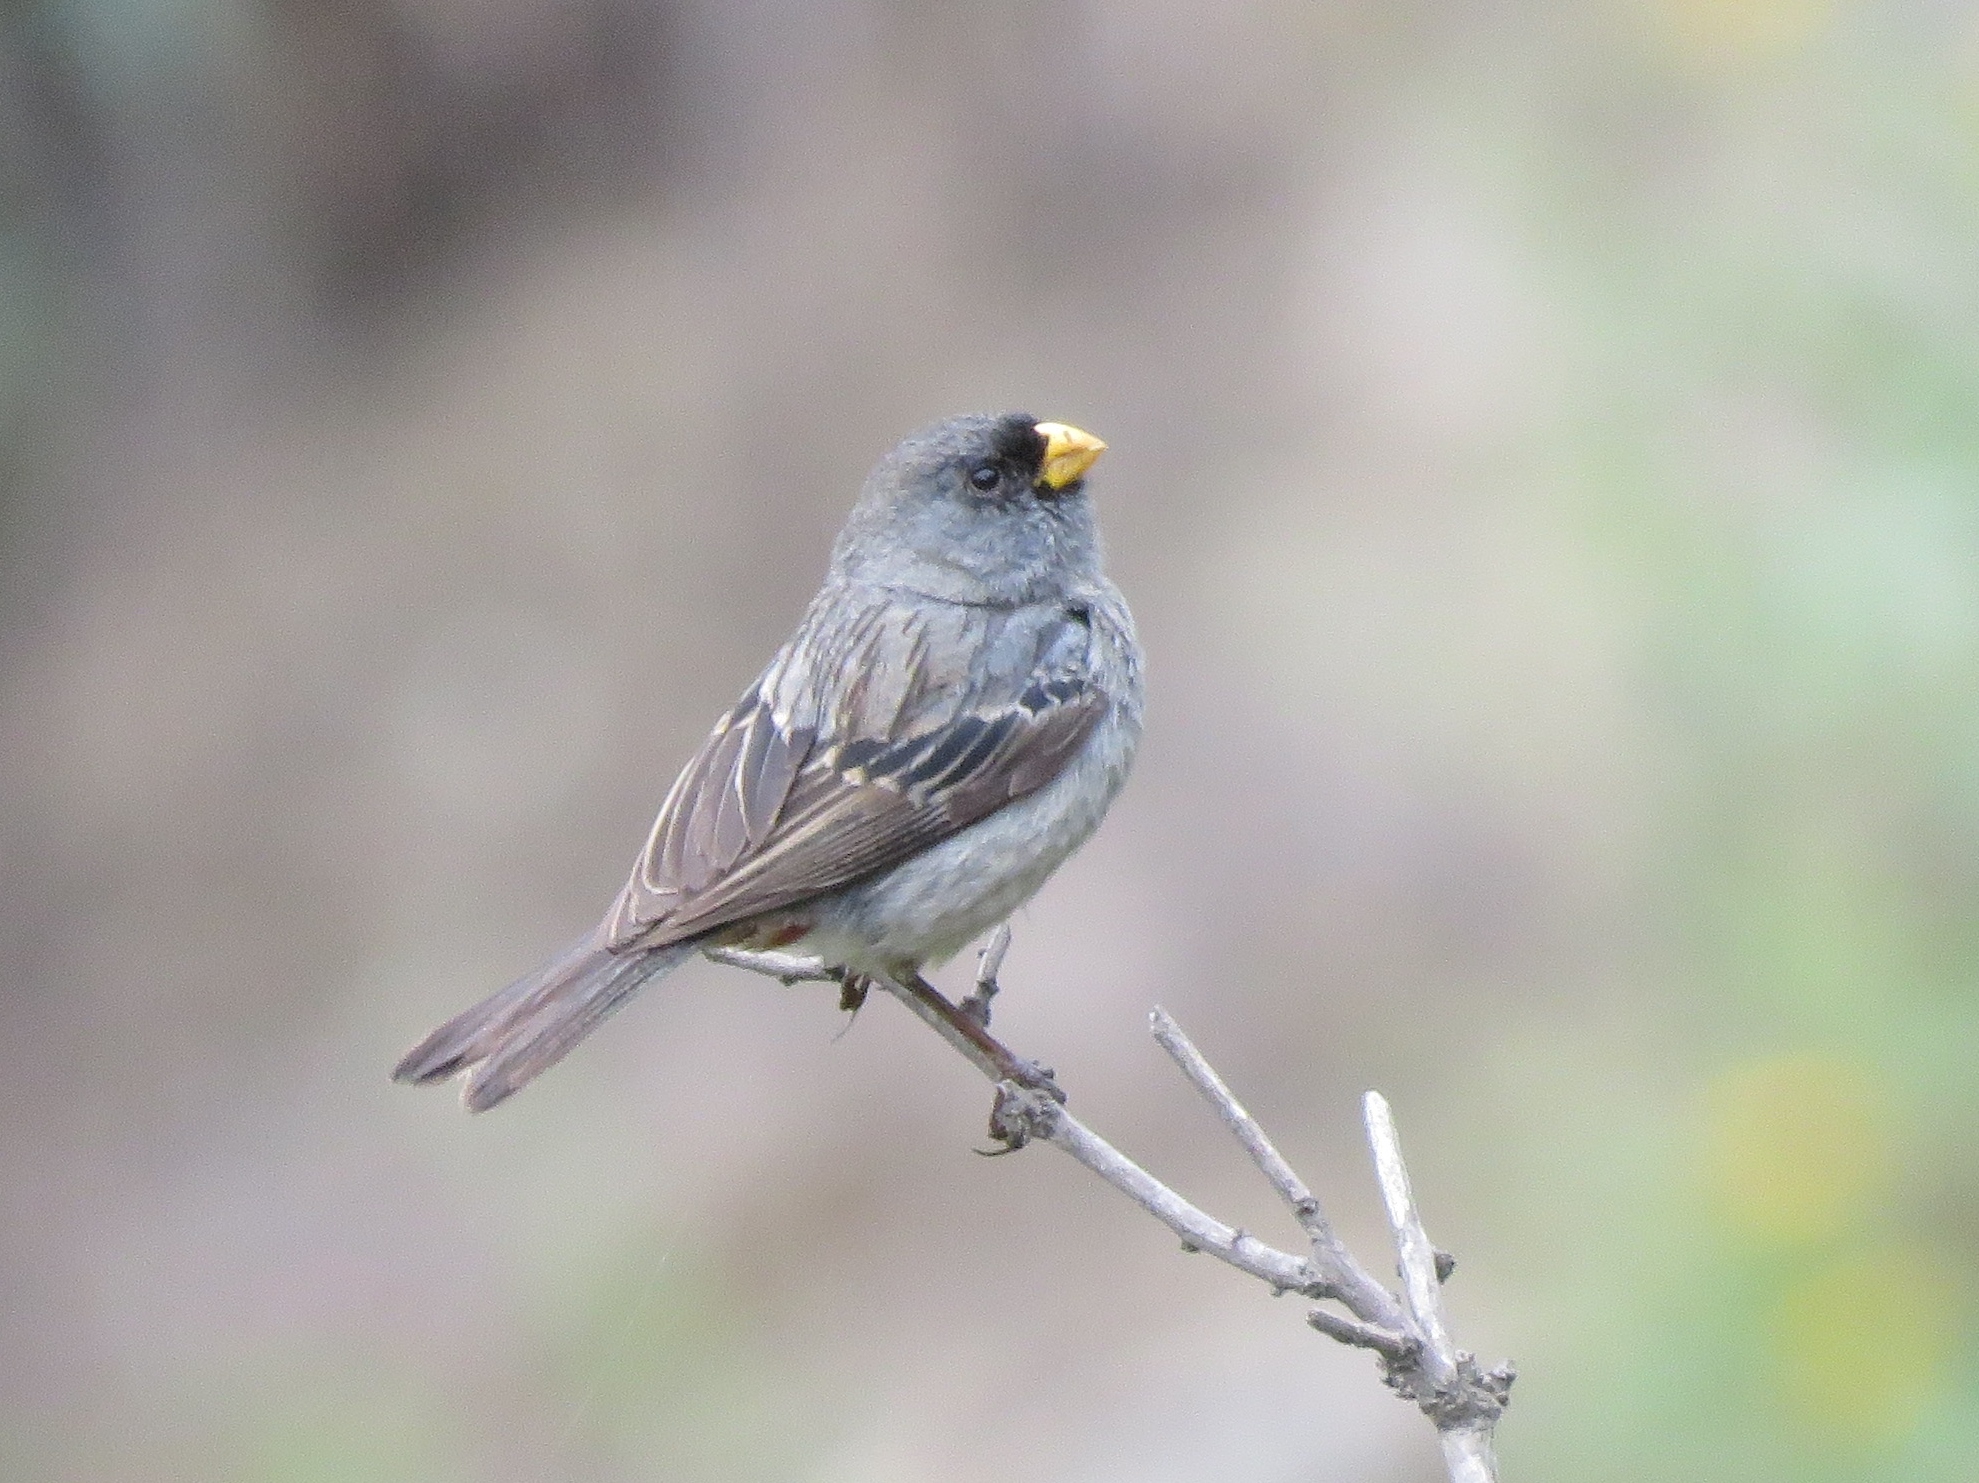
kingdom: Animalia
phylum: Chordata
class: Aves
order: Passeriformes
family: Thraupidae
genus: Catamenia
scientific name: Catamenia analis
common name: Band-tailed seedeater
